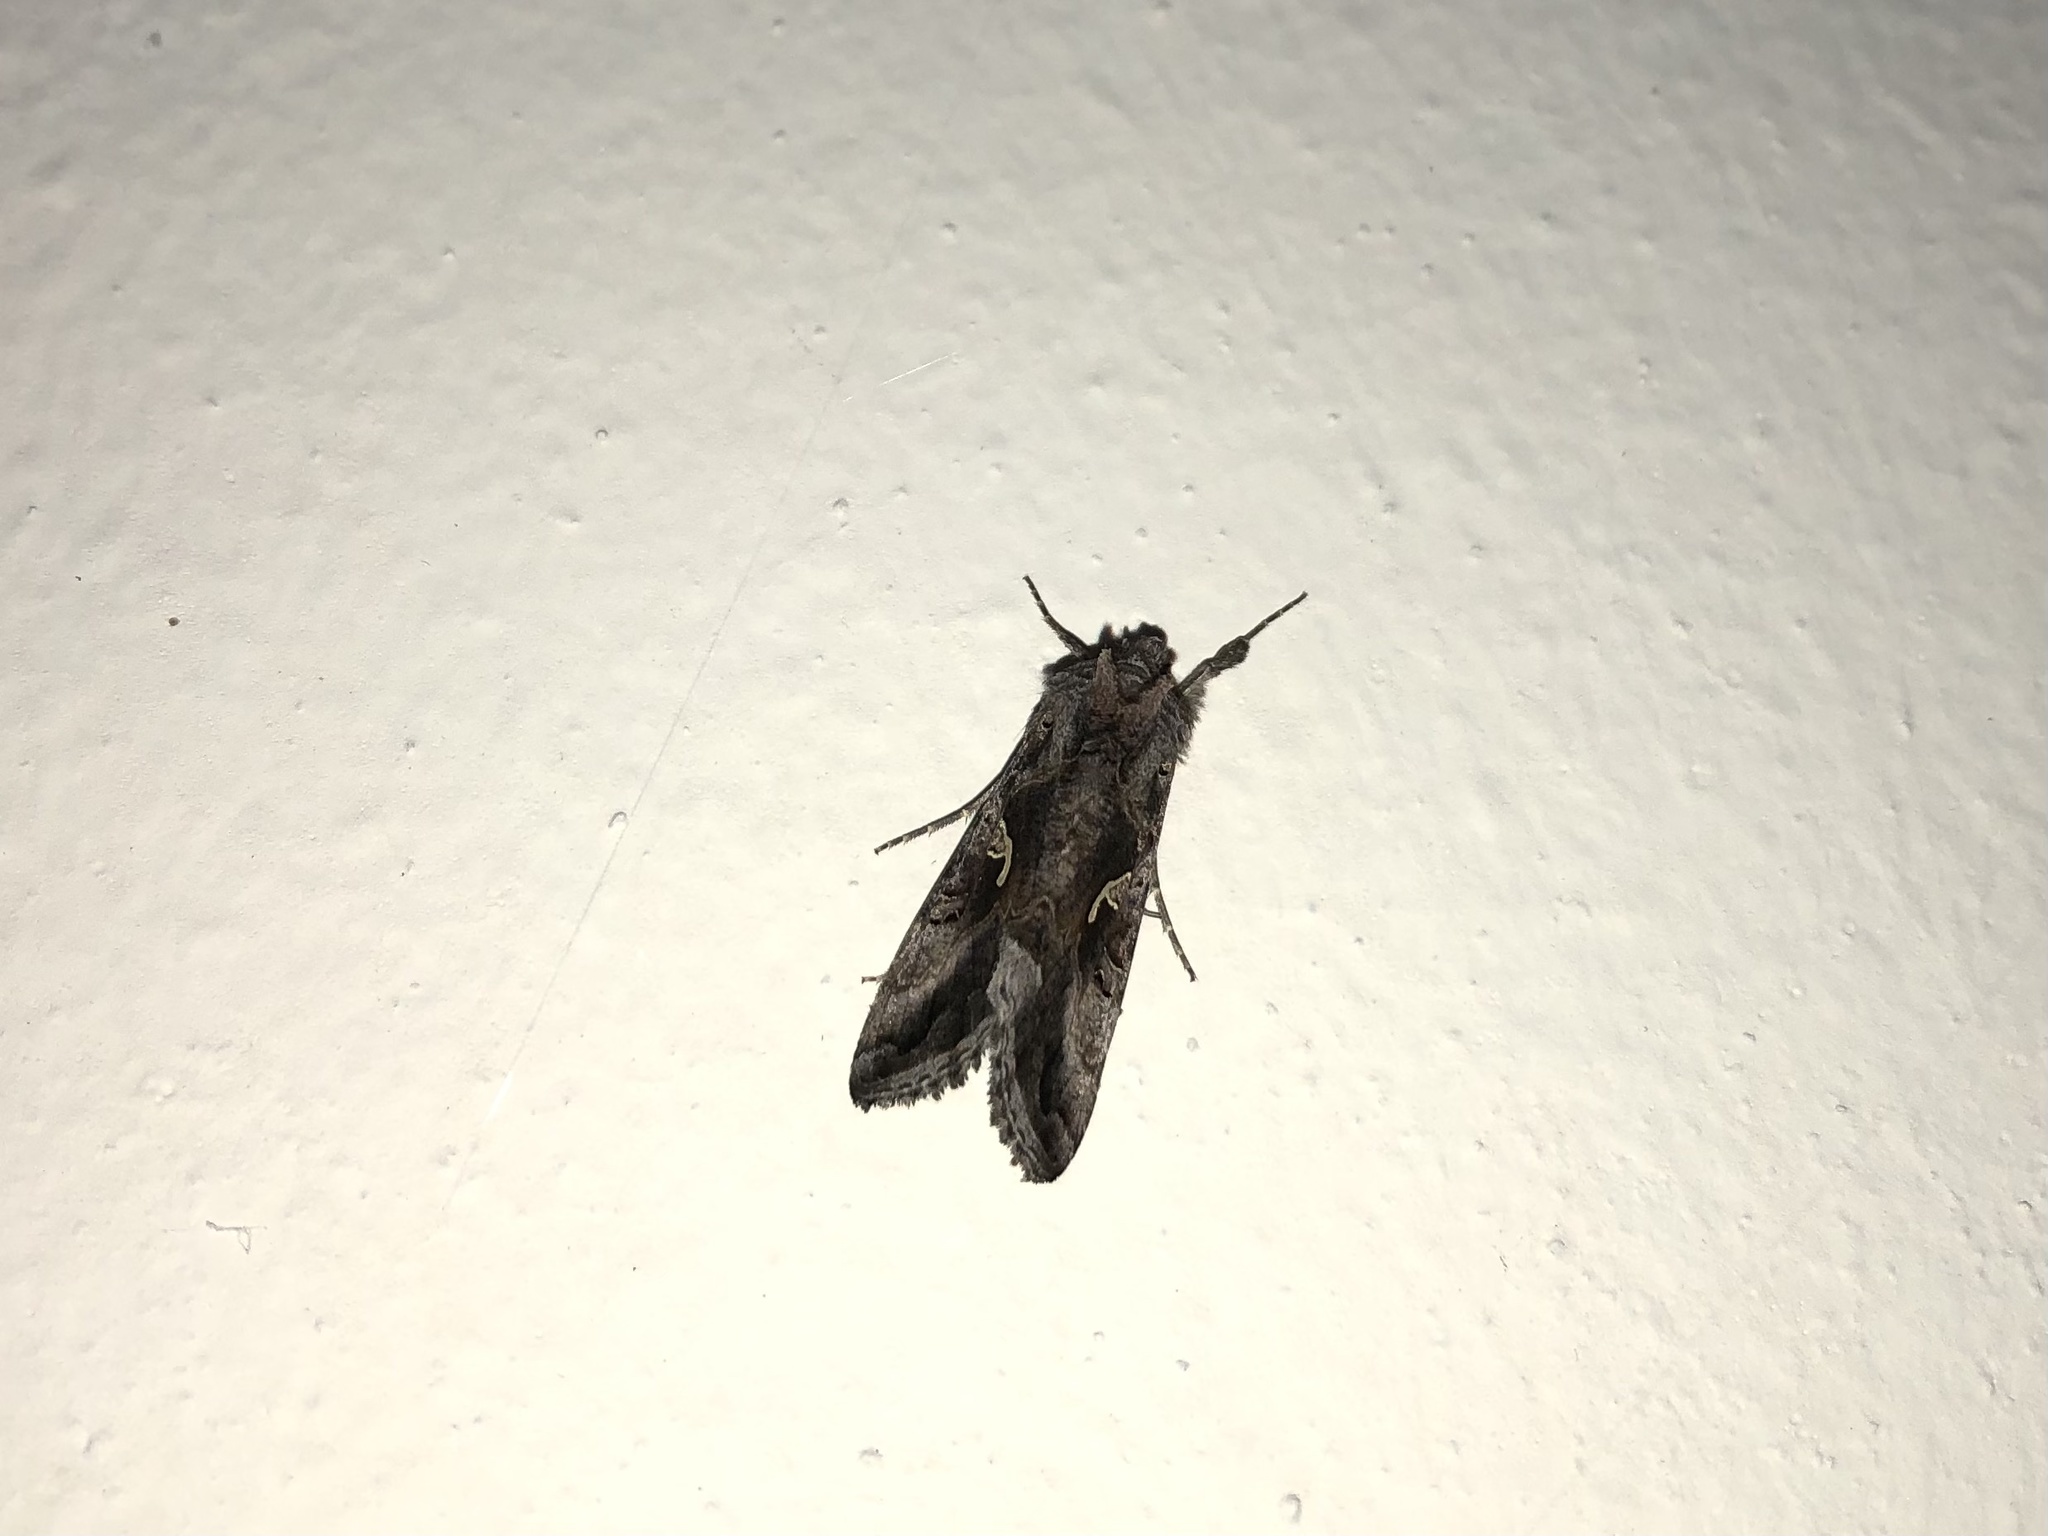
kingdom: Animalia
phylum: Arthropoda
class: Insecta
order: Lepidoptera
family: Noctuidae
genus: Autographa
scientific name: Autographa gamma
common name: Silver y
